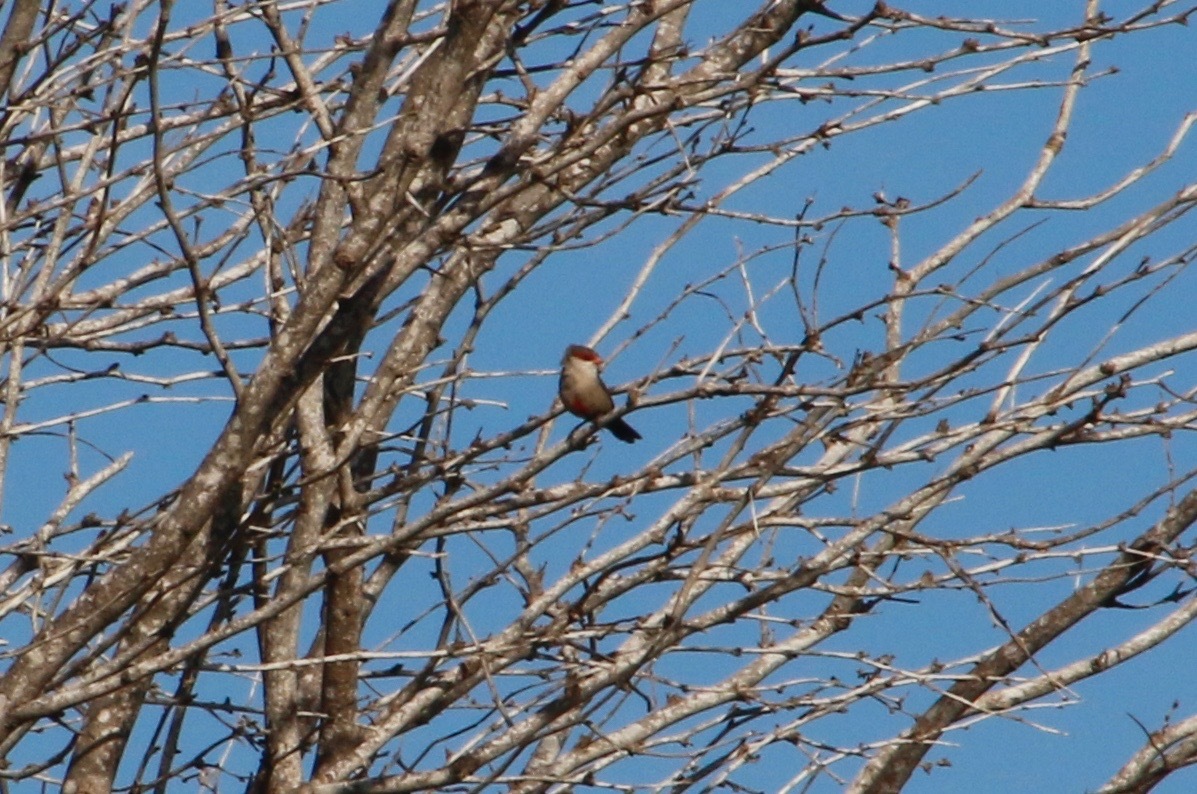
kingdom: Animalia
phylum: Chordata
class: Aves
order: Passeriformes
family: Estrildidae
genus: Estrilda
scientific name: Estrilda astrild
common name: Common waxbill
